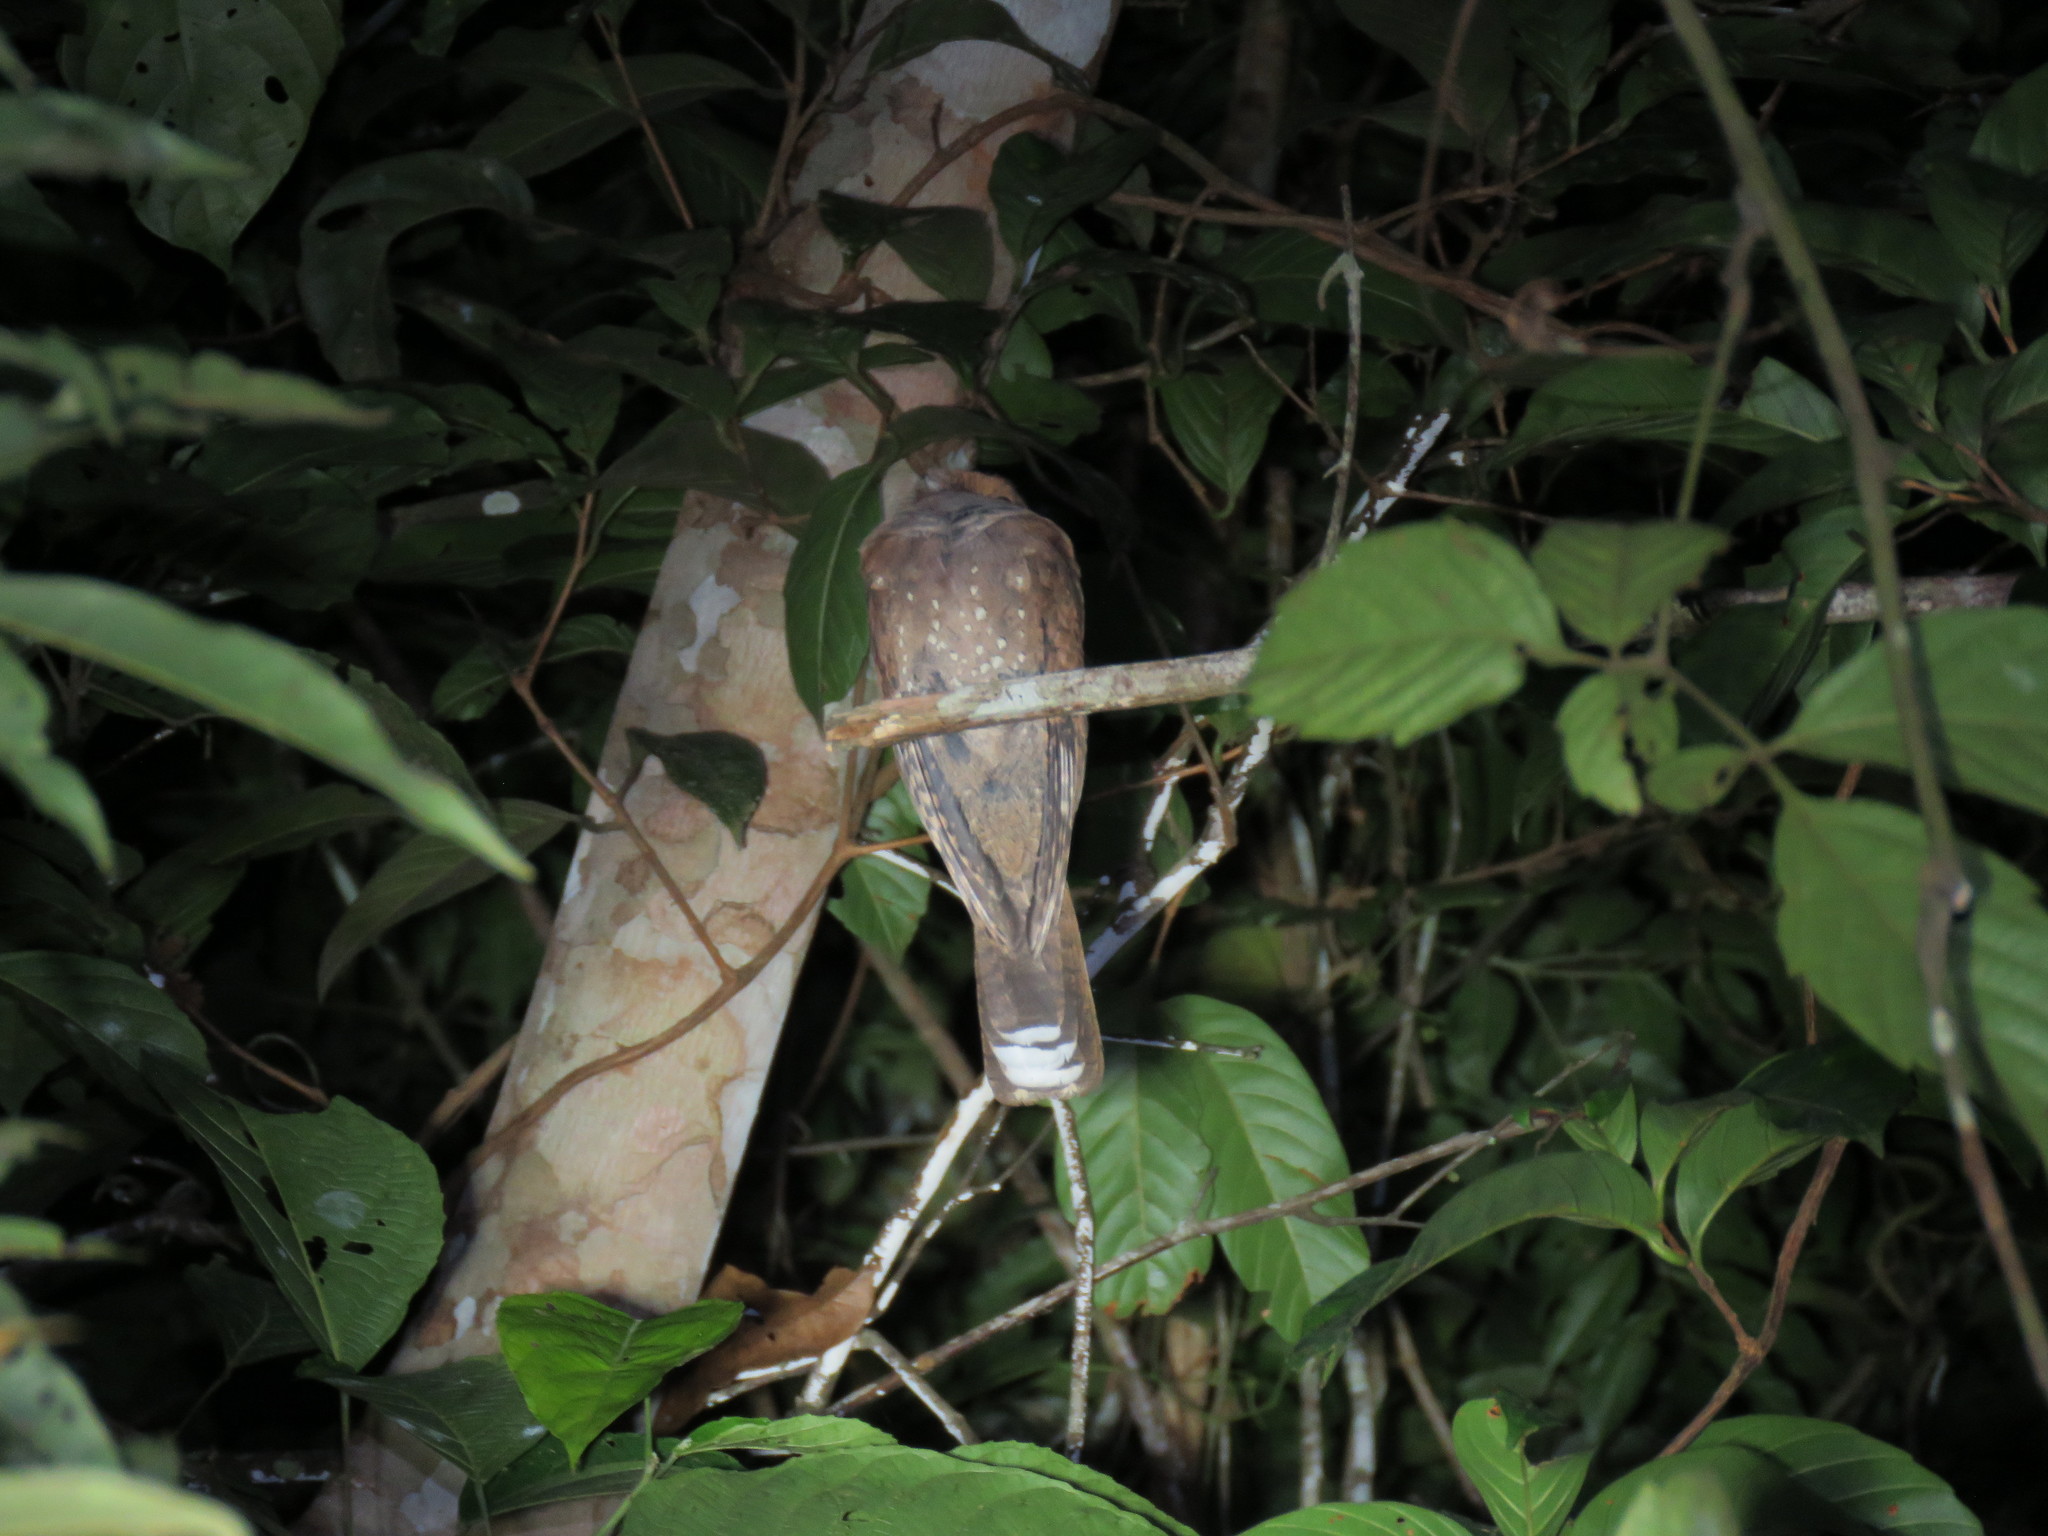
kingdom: Animalia
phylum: Chordata
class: Aves
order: Caprimulgiformes
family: Caprimulgidae
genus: Nyctiphrynus
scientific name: Nyctiphrynus ocellatus
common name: Ocellated poorwill
